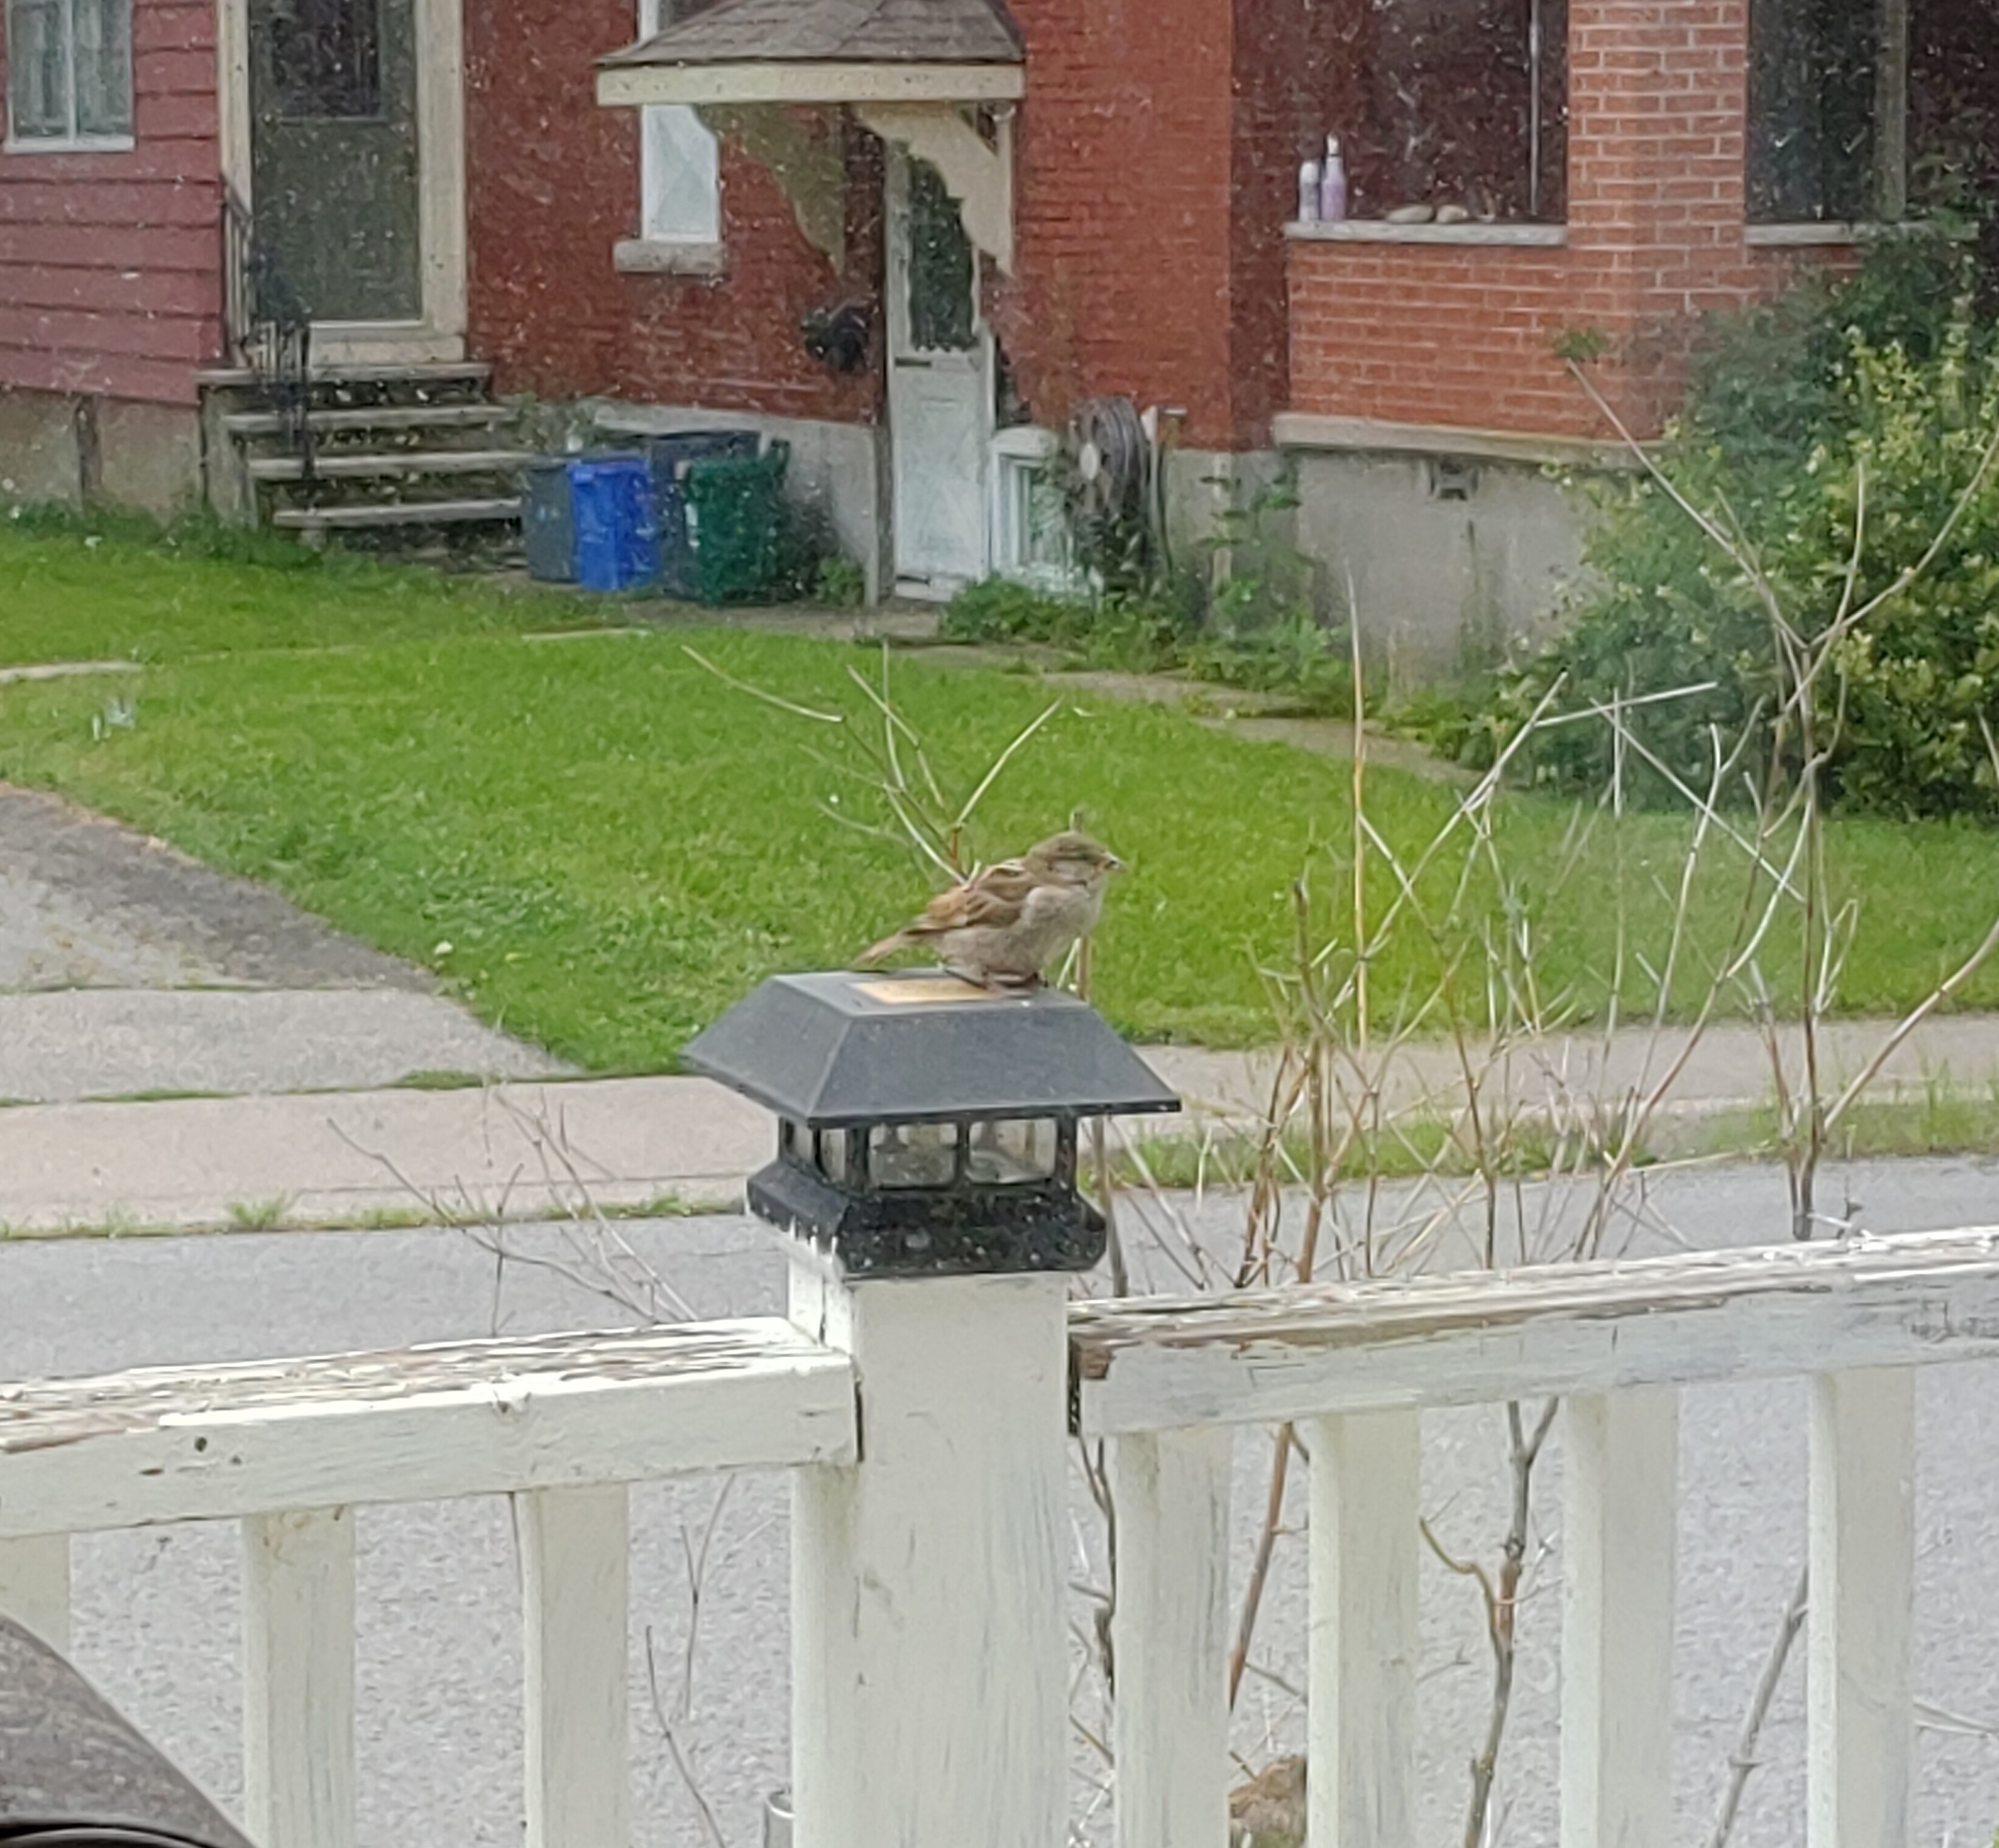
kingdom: Animalia
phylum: Chordata
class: Aves
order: Passeriformes
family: Passeridae
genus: Passer
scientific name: Passer domesticus
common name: House sparrow
